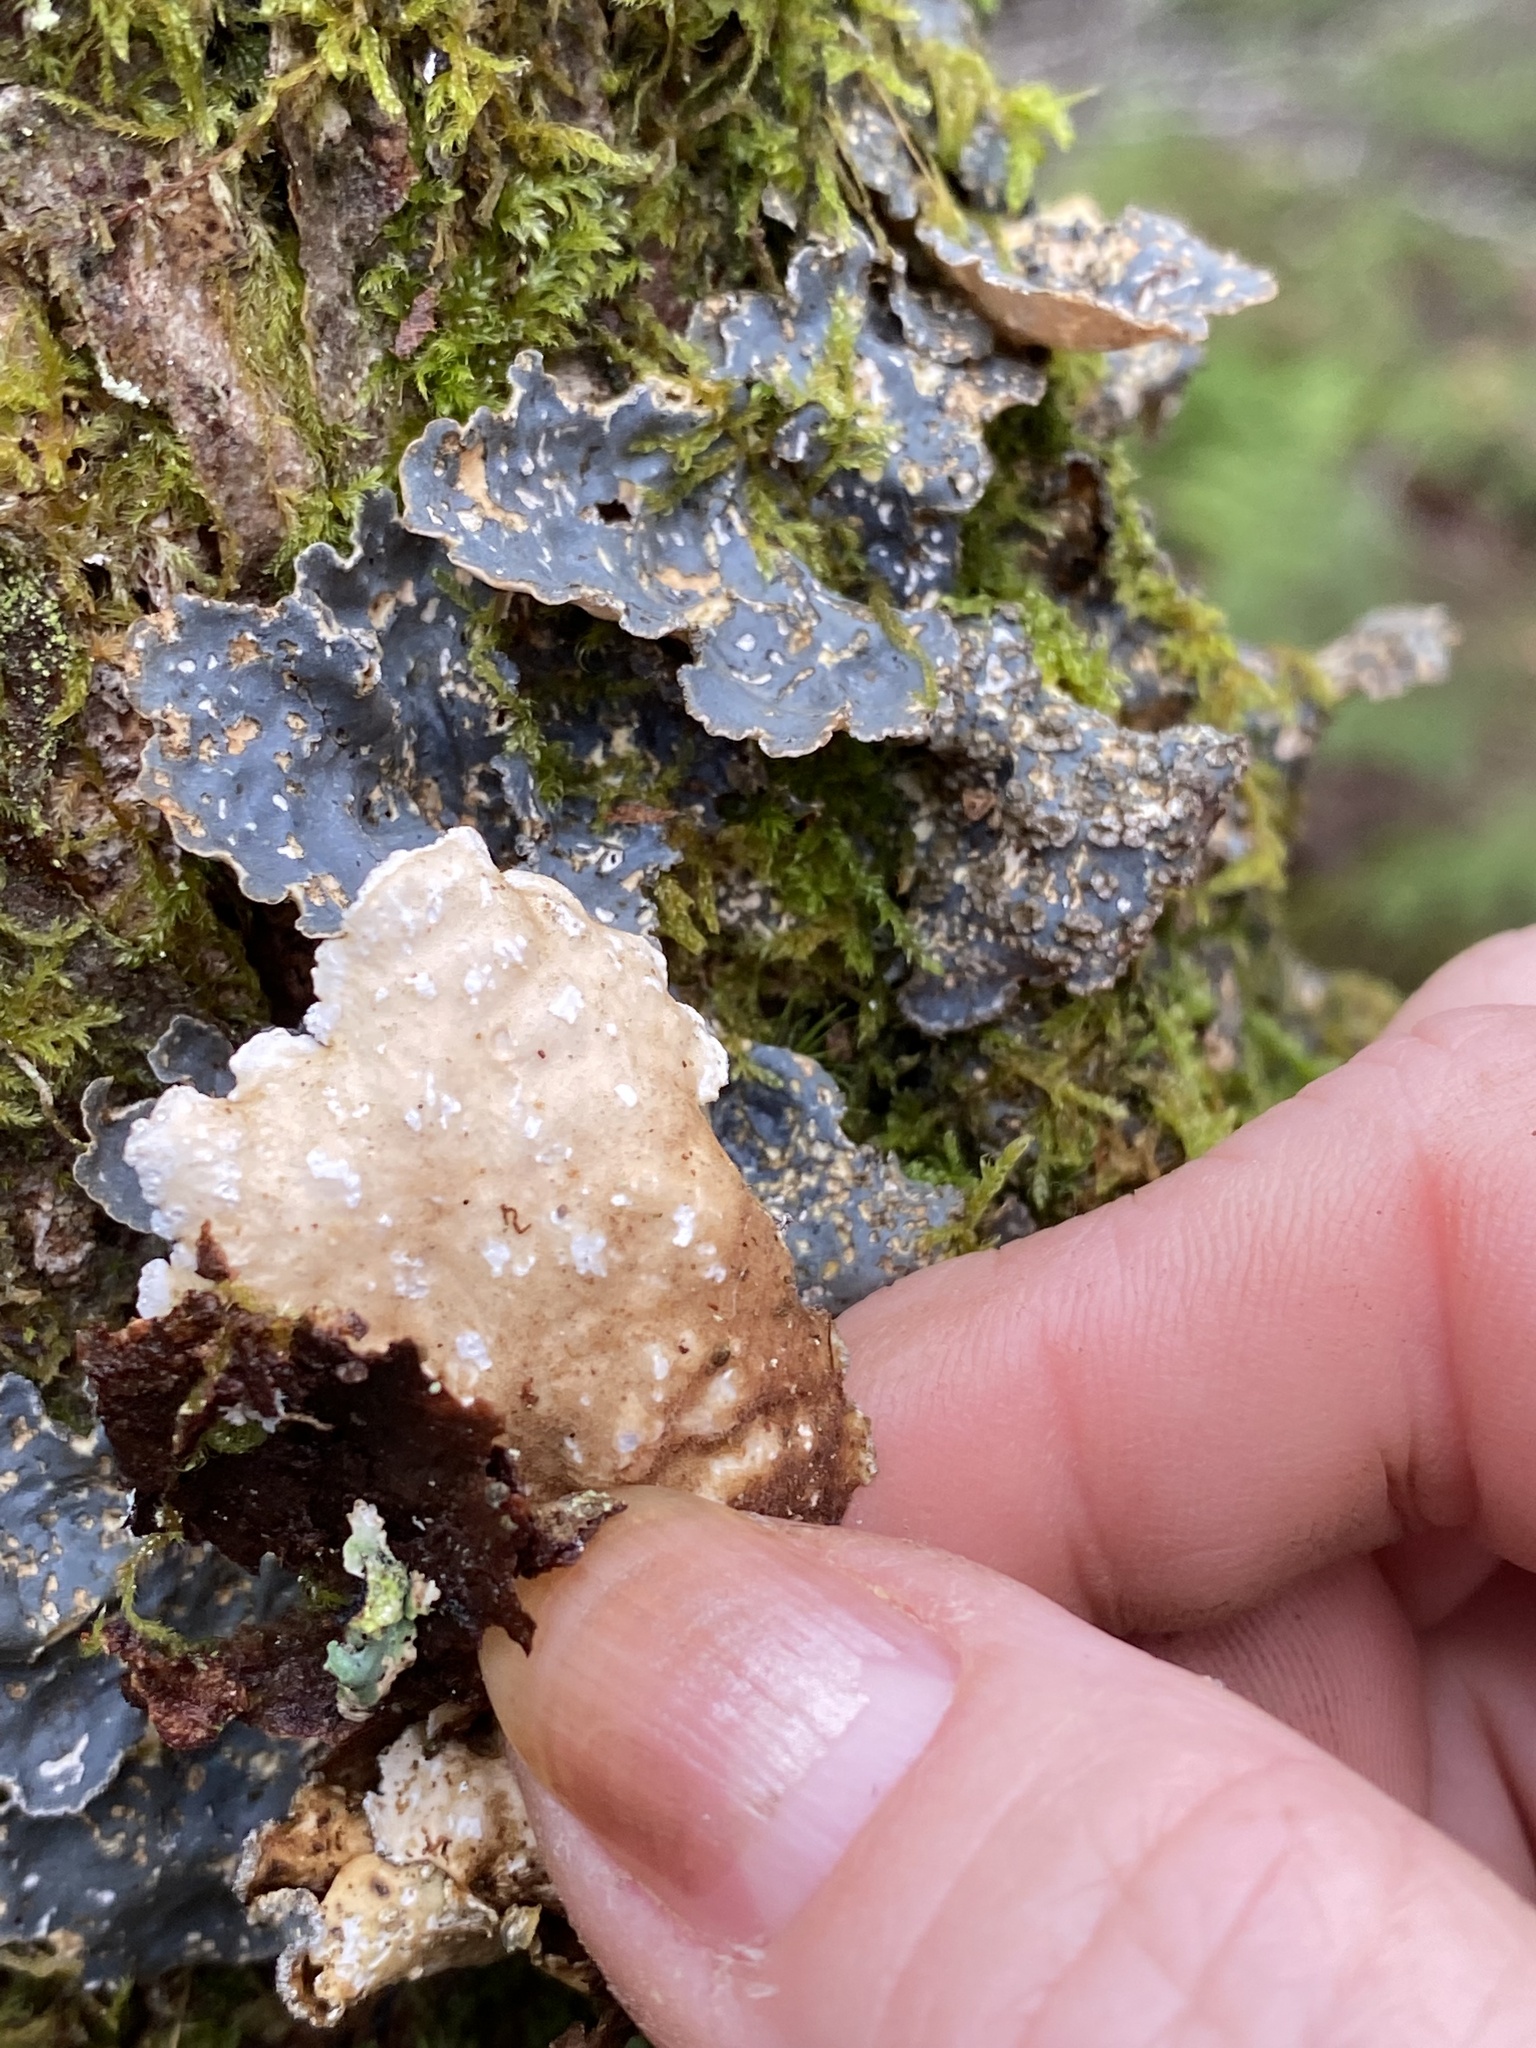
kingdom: Fungi
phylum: Ascomycota
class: Lecanoromycetes
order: Peltigerales
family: Lobariaceae
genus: Lobarina
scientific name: Lobarina scrobiculata
